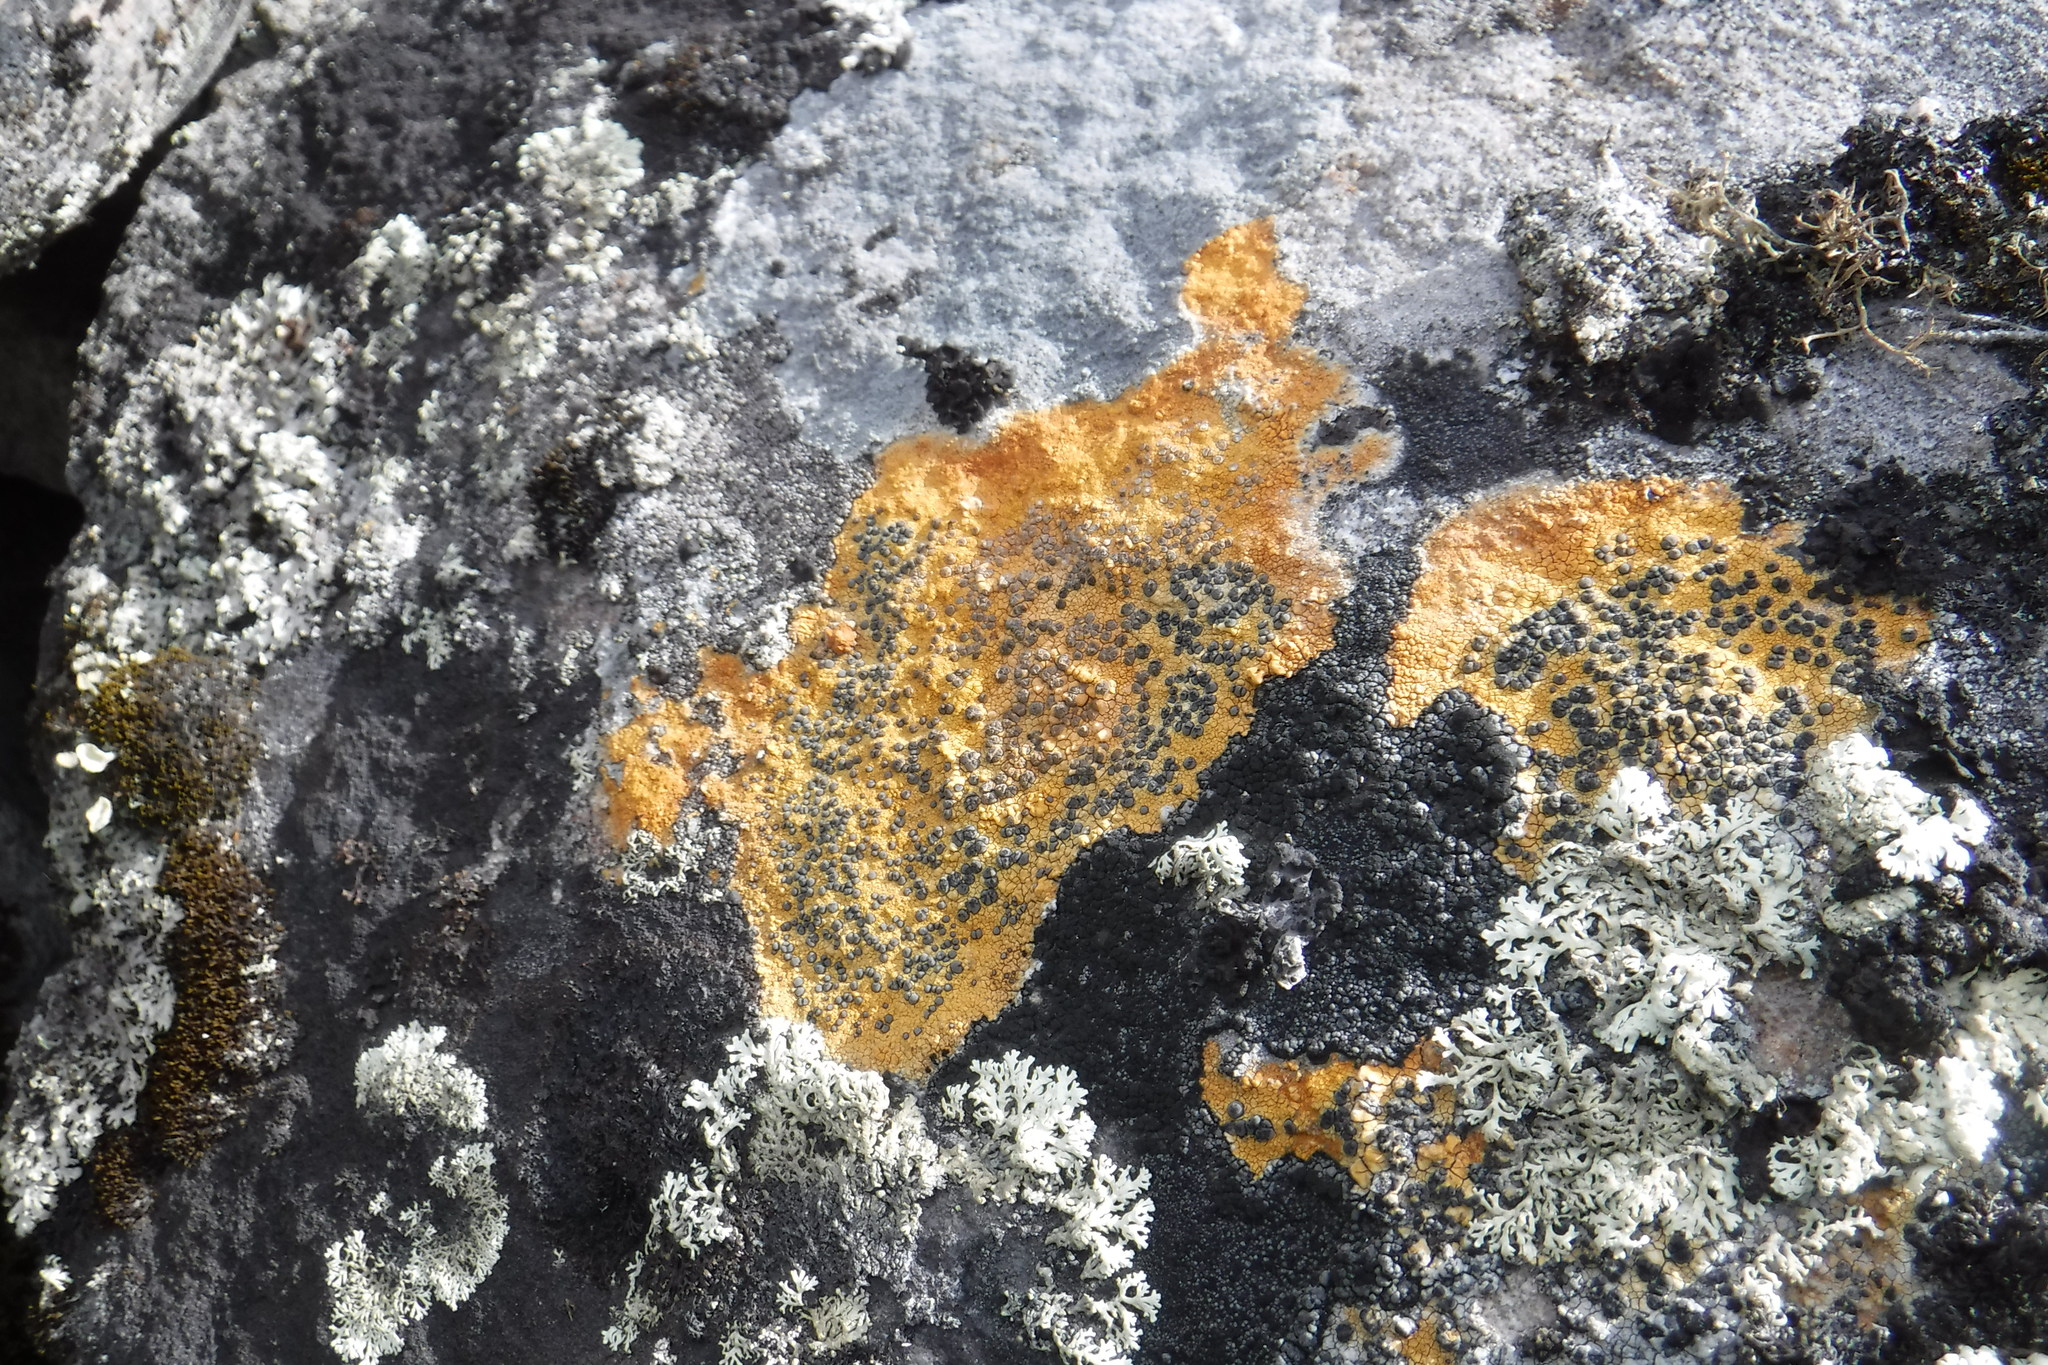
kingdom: Fungi
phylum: Ascomycota
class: Lecanoromycetes
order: Lecideales
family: Lecideaceae
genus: Porpidia
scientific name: Porpidia flavicunda
